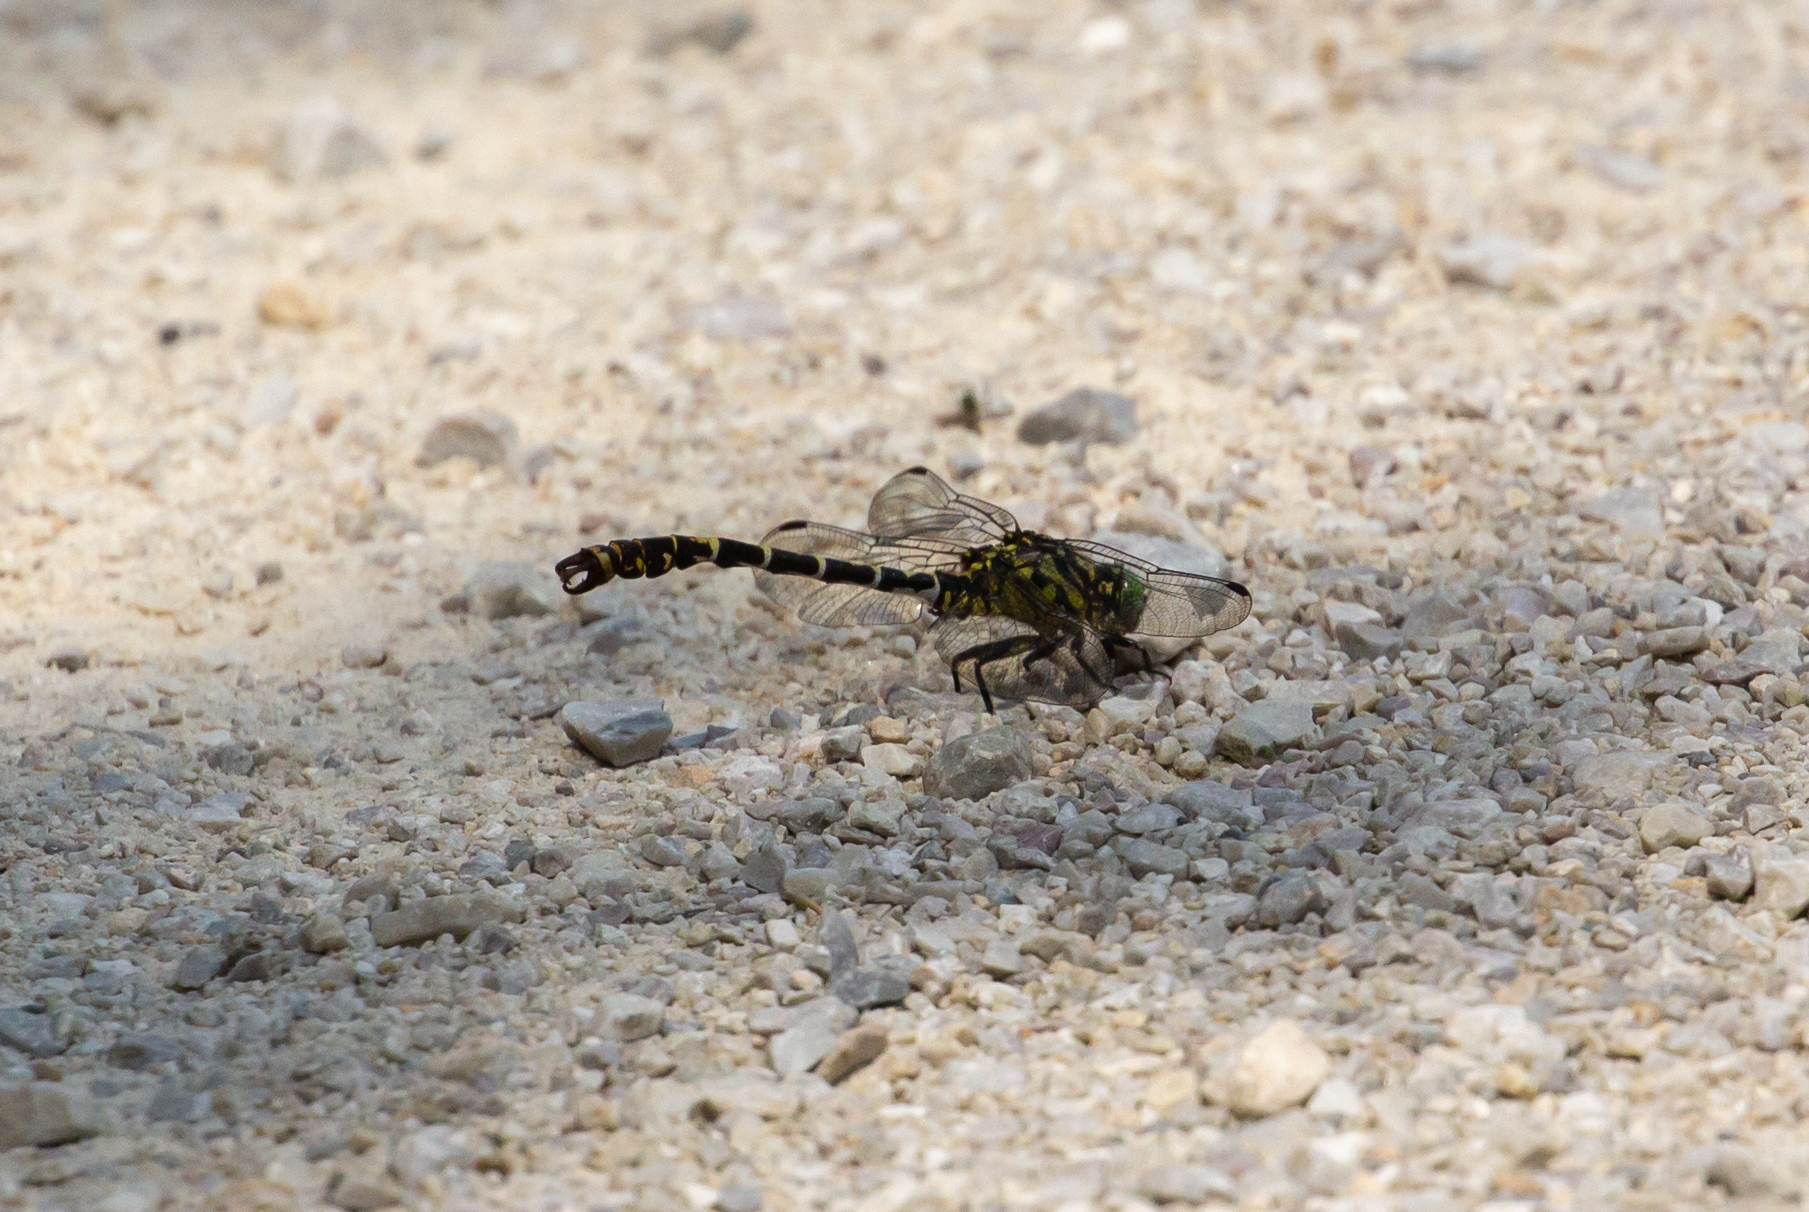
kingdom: Animalia
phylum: Arthropoda
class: Insecta
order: Odonata
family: Gomphidae
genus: Onychogomphus
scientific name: Onychogomphus forcipatus
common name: Small pincertail
